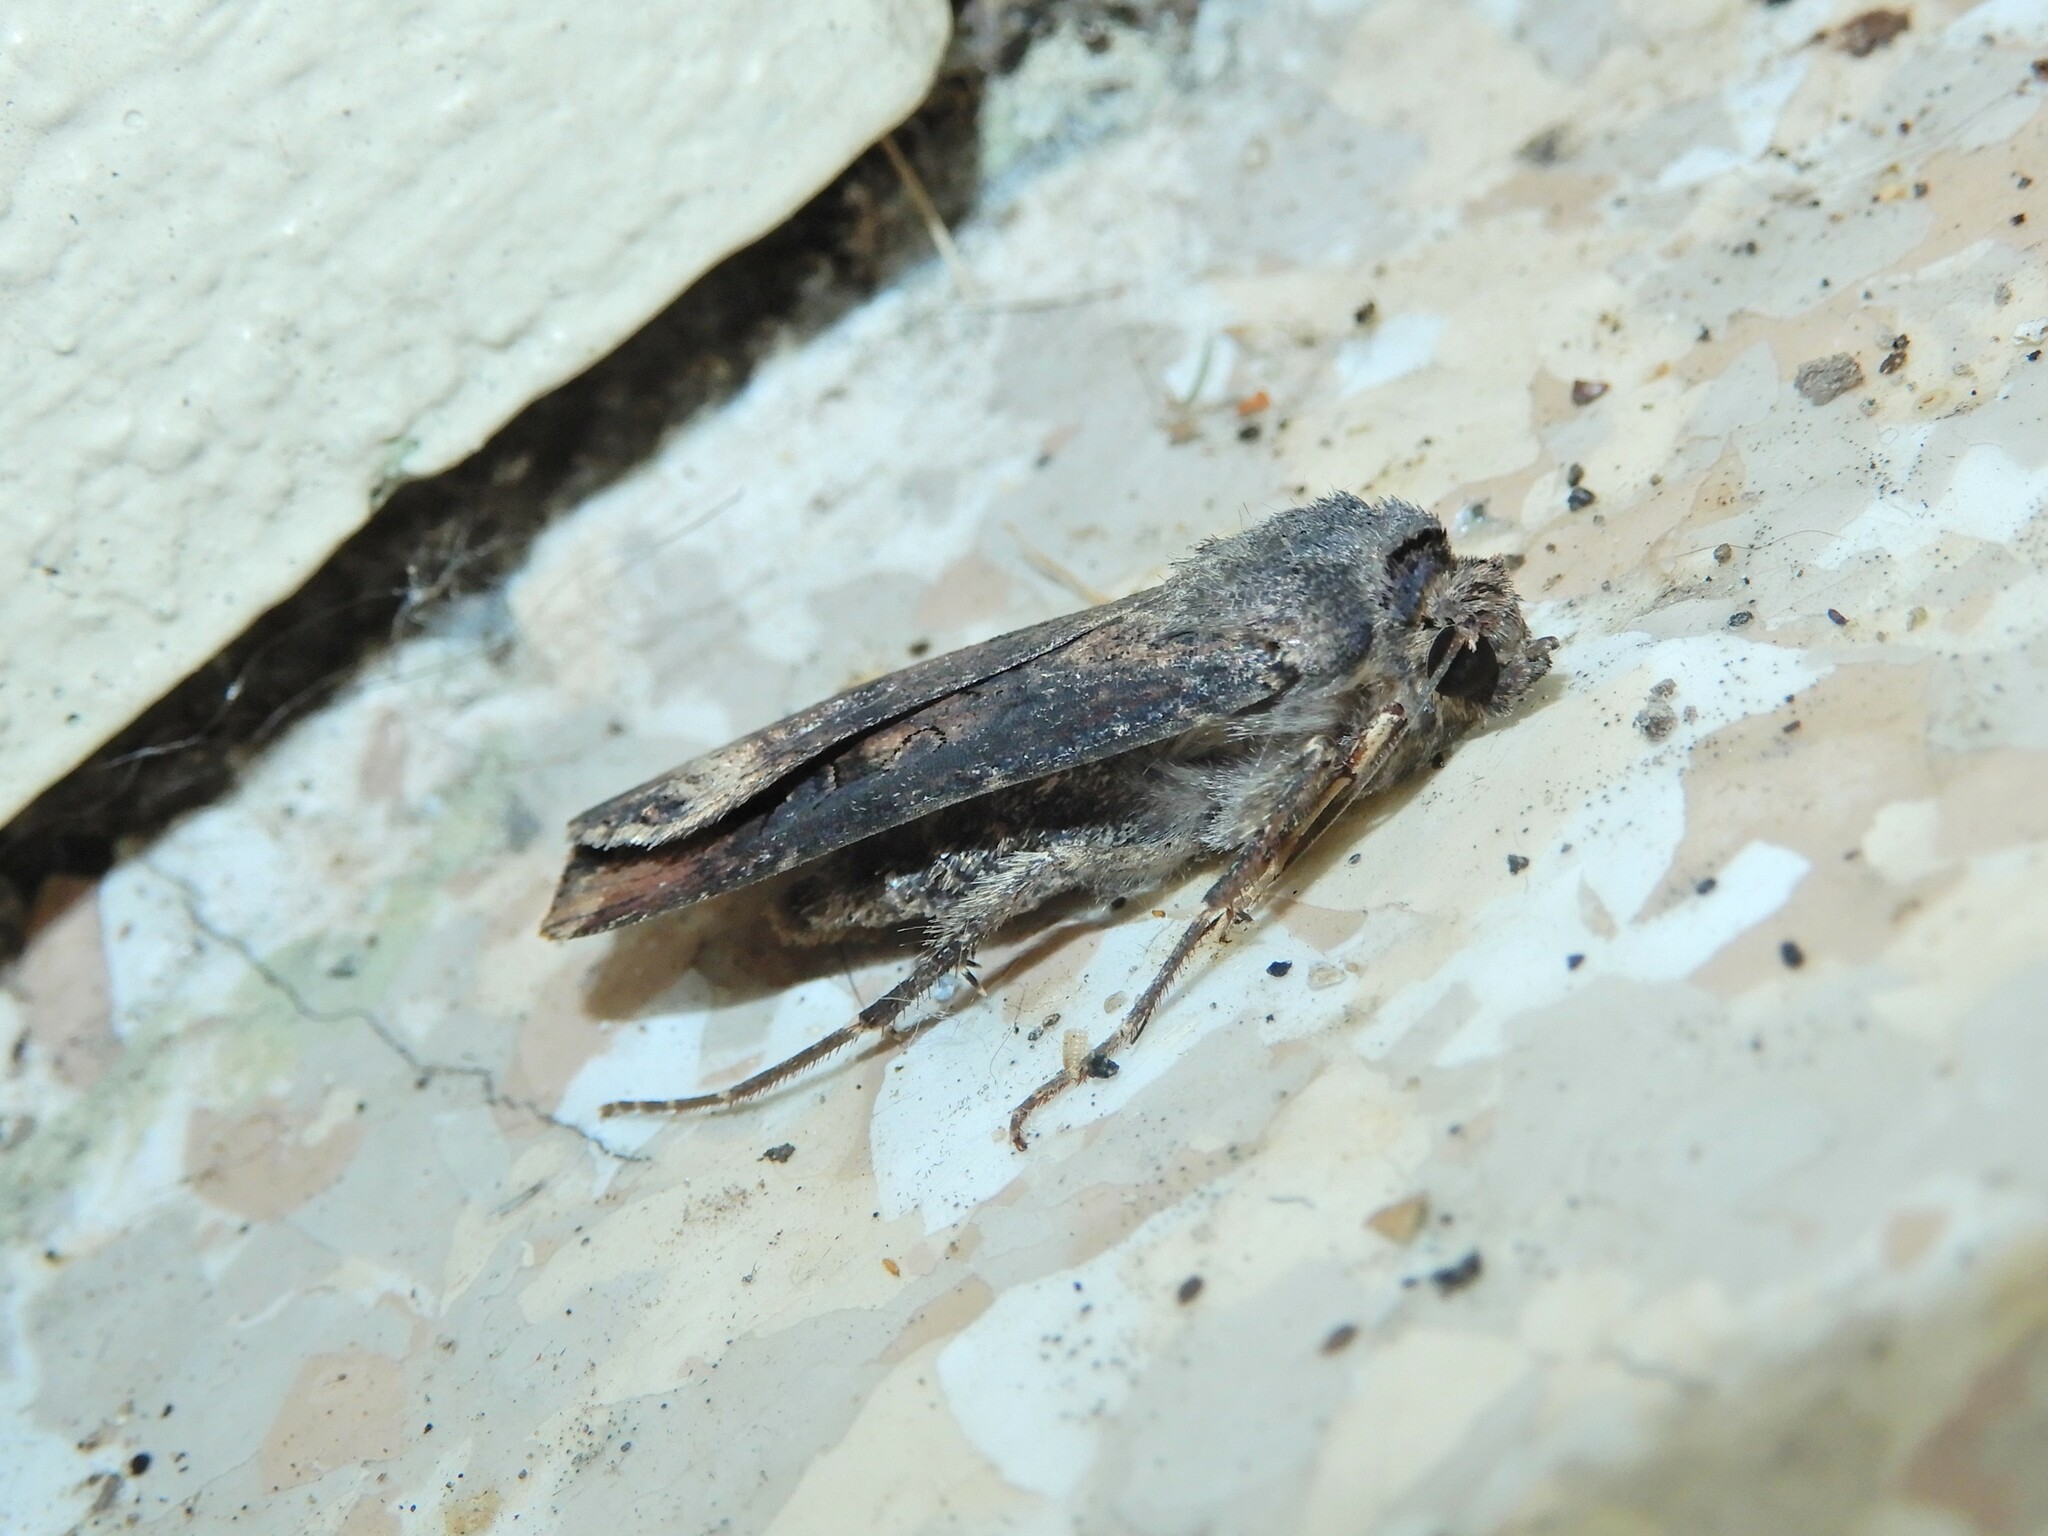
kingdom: Animalia
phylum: Arthropoda
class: Insecta
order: Lepidoptera
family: Noctuidae
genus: Agrotis
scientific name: Agrotis ipsilon
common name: Dark sword-grass
